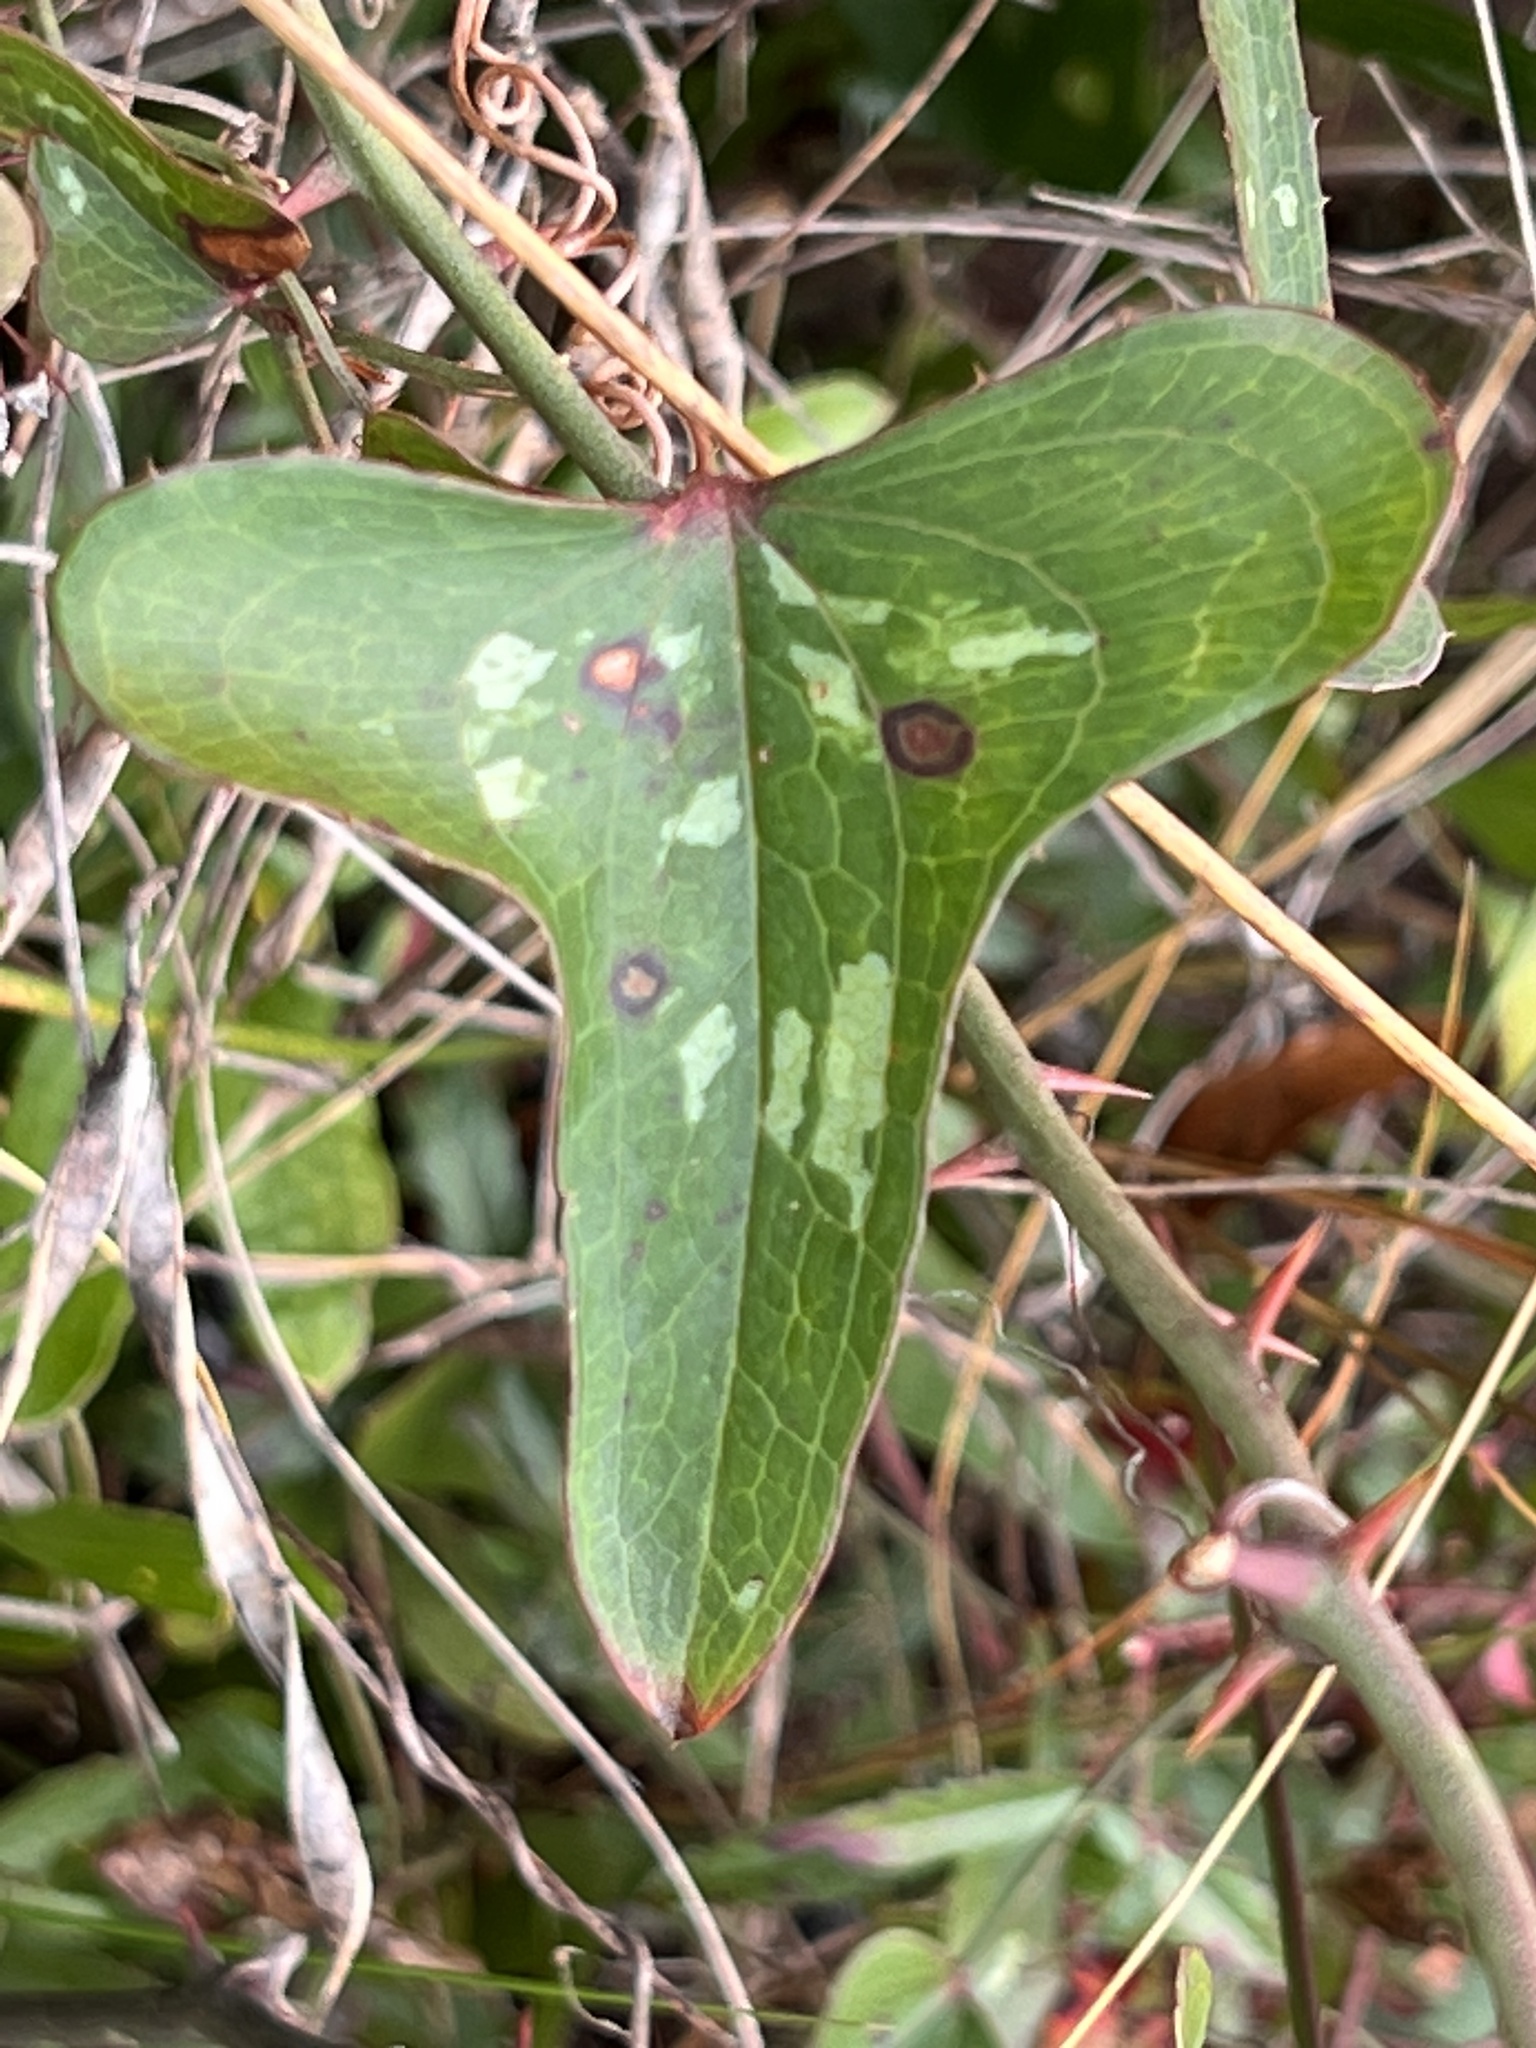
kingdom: Plantae
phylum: Tracheophyta
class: Liliopsida
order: Liliales
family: Smilacaceae
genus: Smilax
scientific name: Smilax bona-nox
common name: Catbrier
